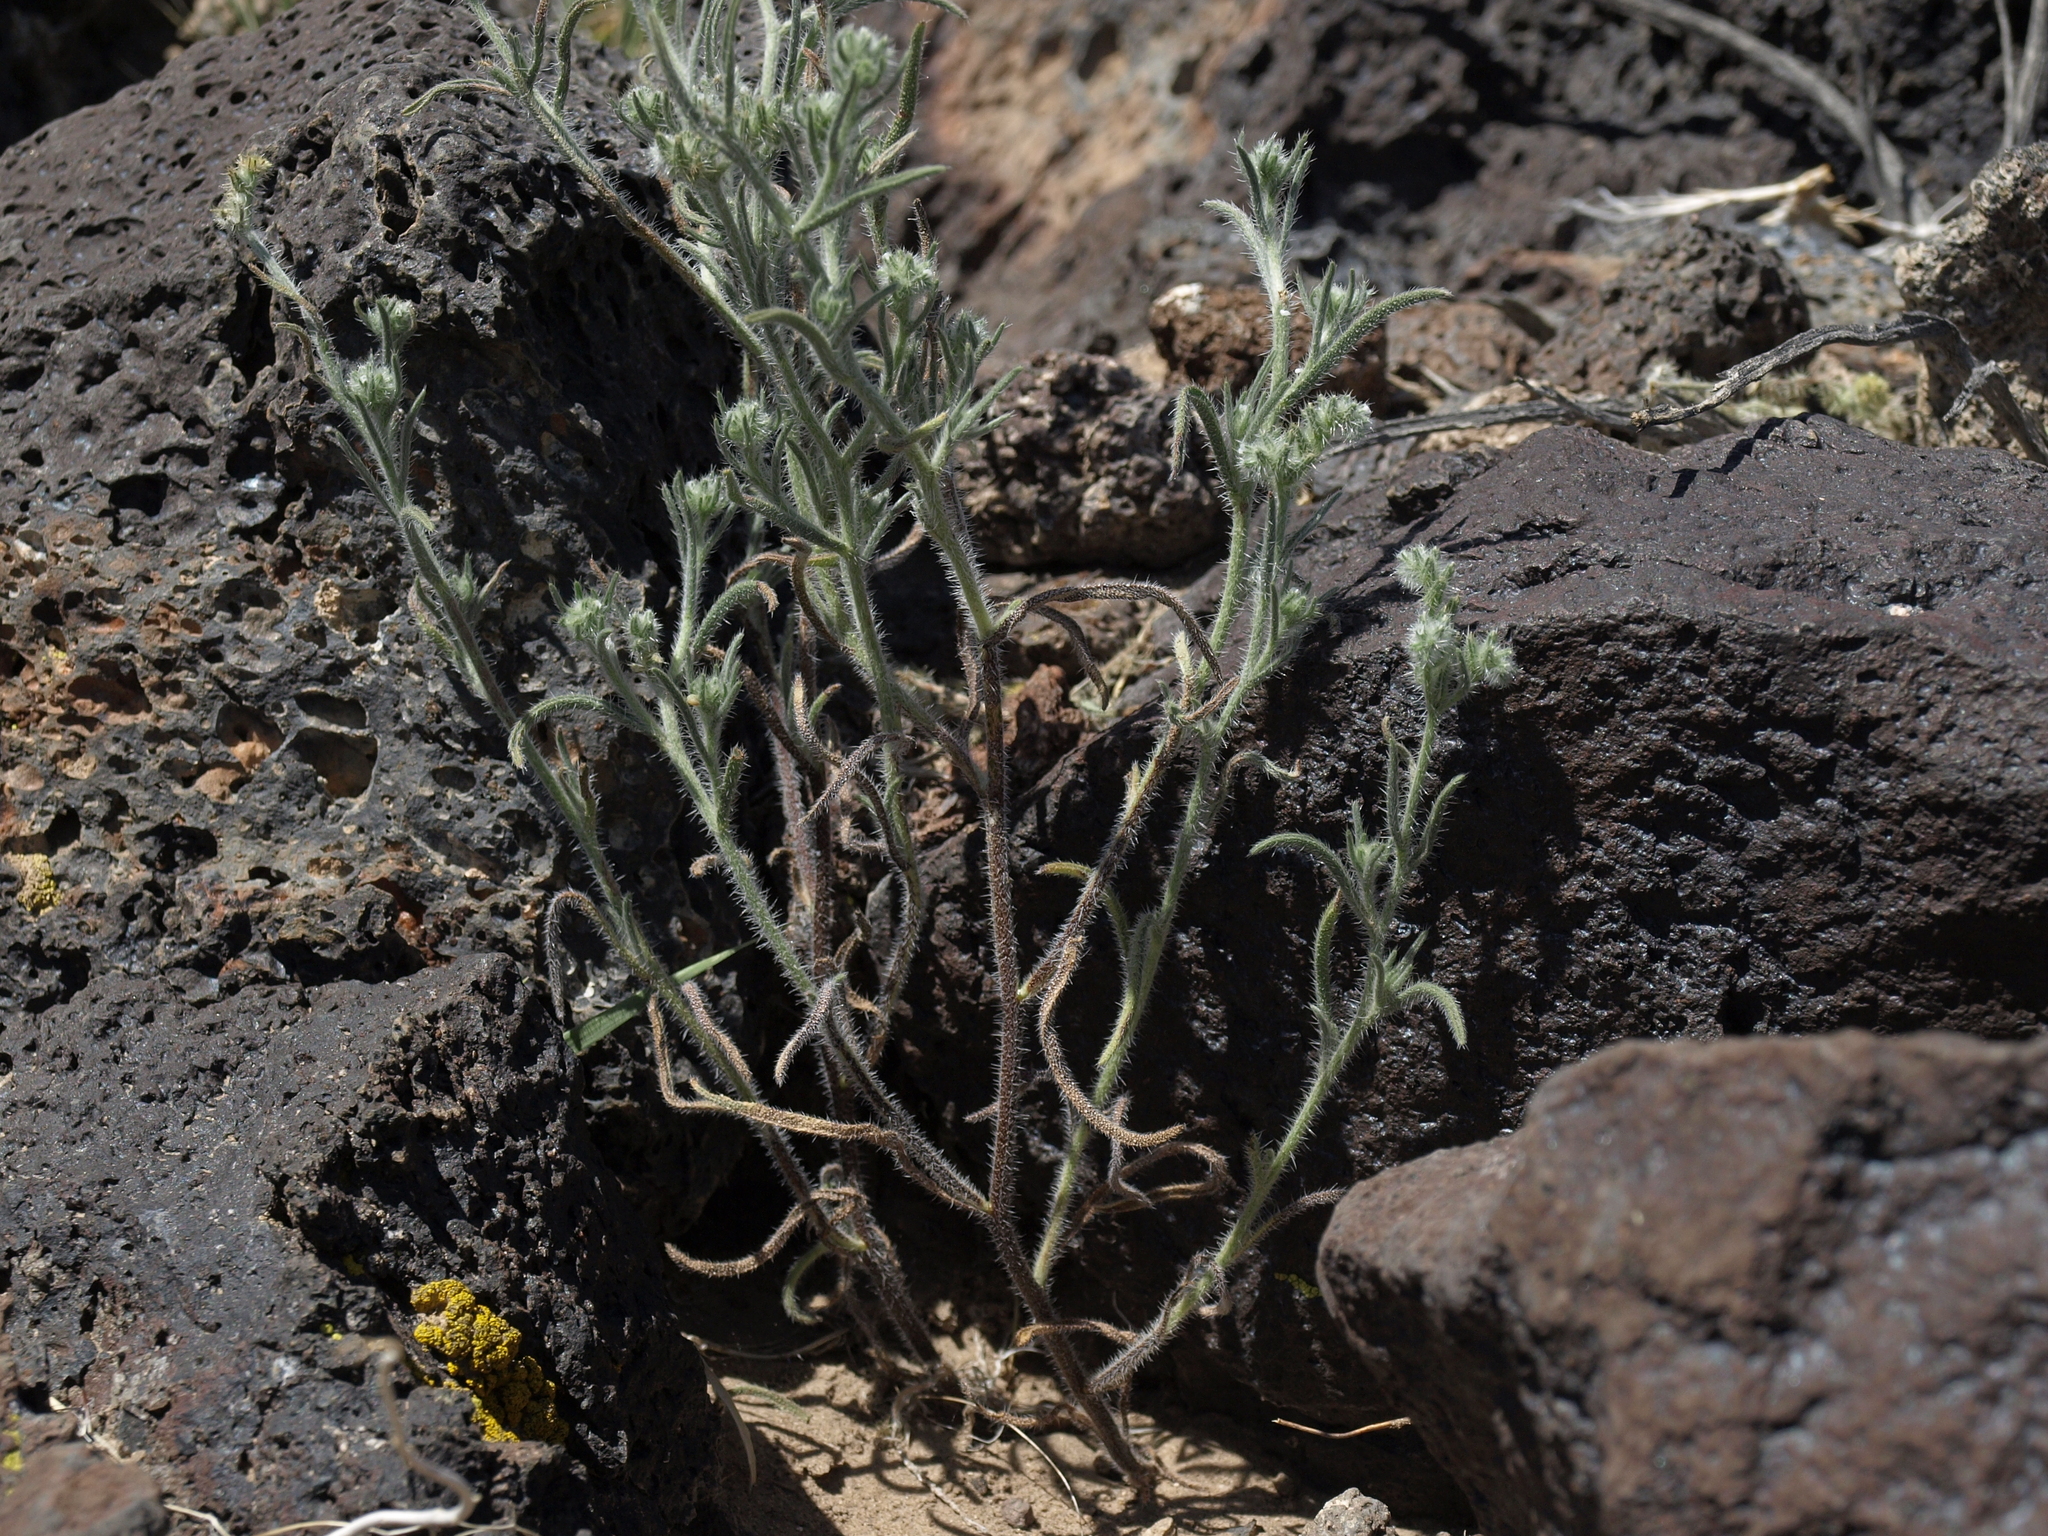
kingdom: Plantae
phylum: Tracheophyta
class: Magnoliopsida
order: Boraginales
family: Boraginaceae
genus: Cryptantha
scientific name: Cryptantha echinella
